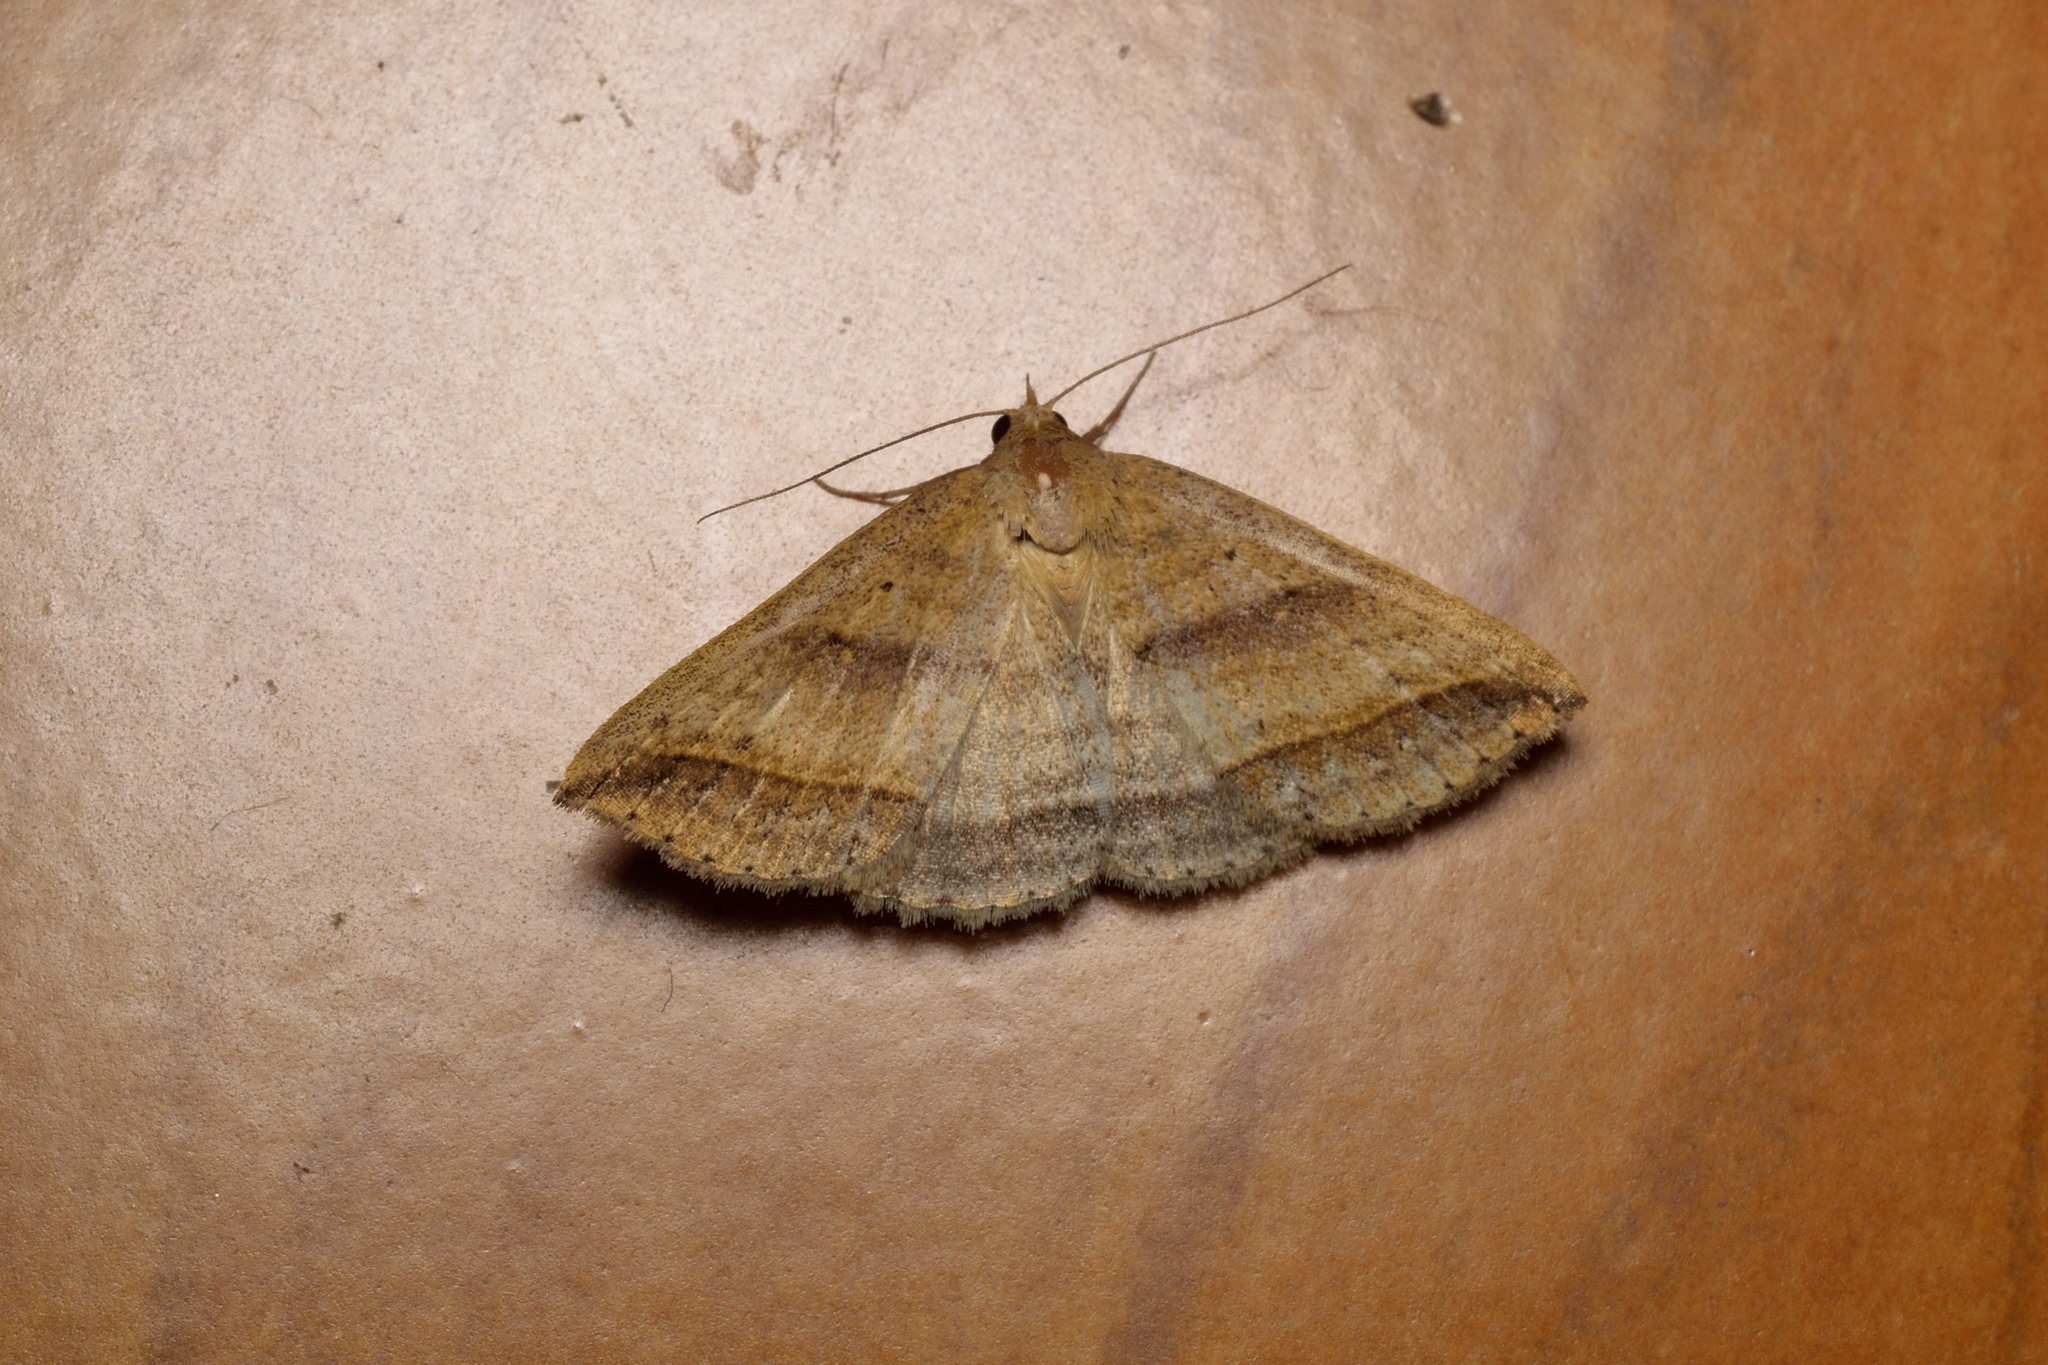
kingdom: Animalia
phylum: Arthropoda
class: Insecta
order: Lepidoptera
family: Erebidae
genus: Mocis
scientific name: Mocis frugalis
